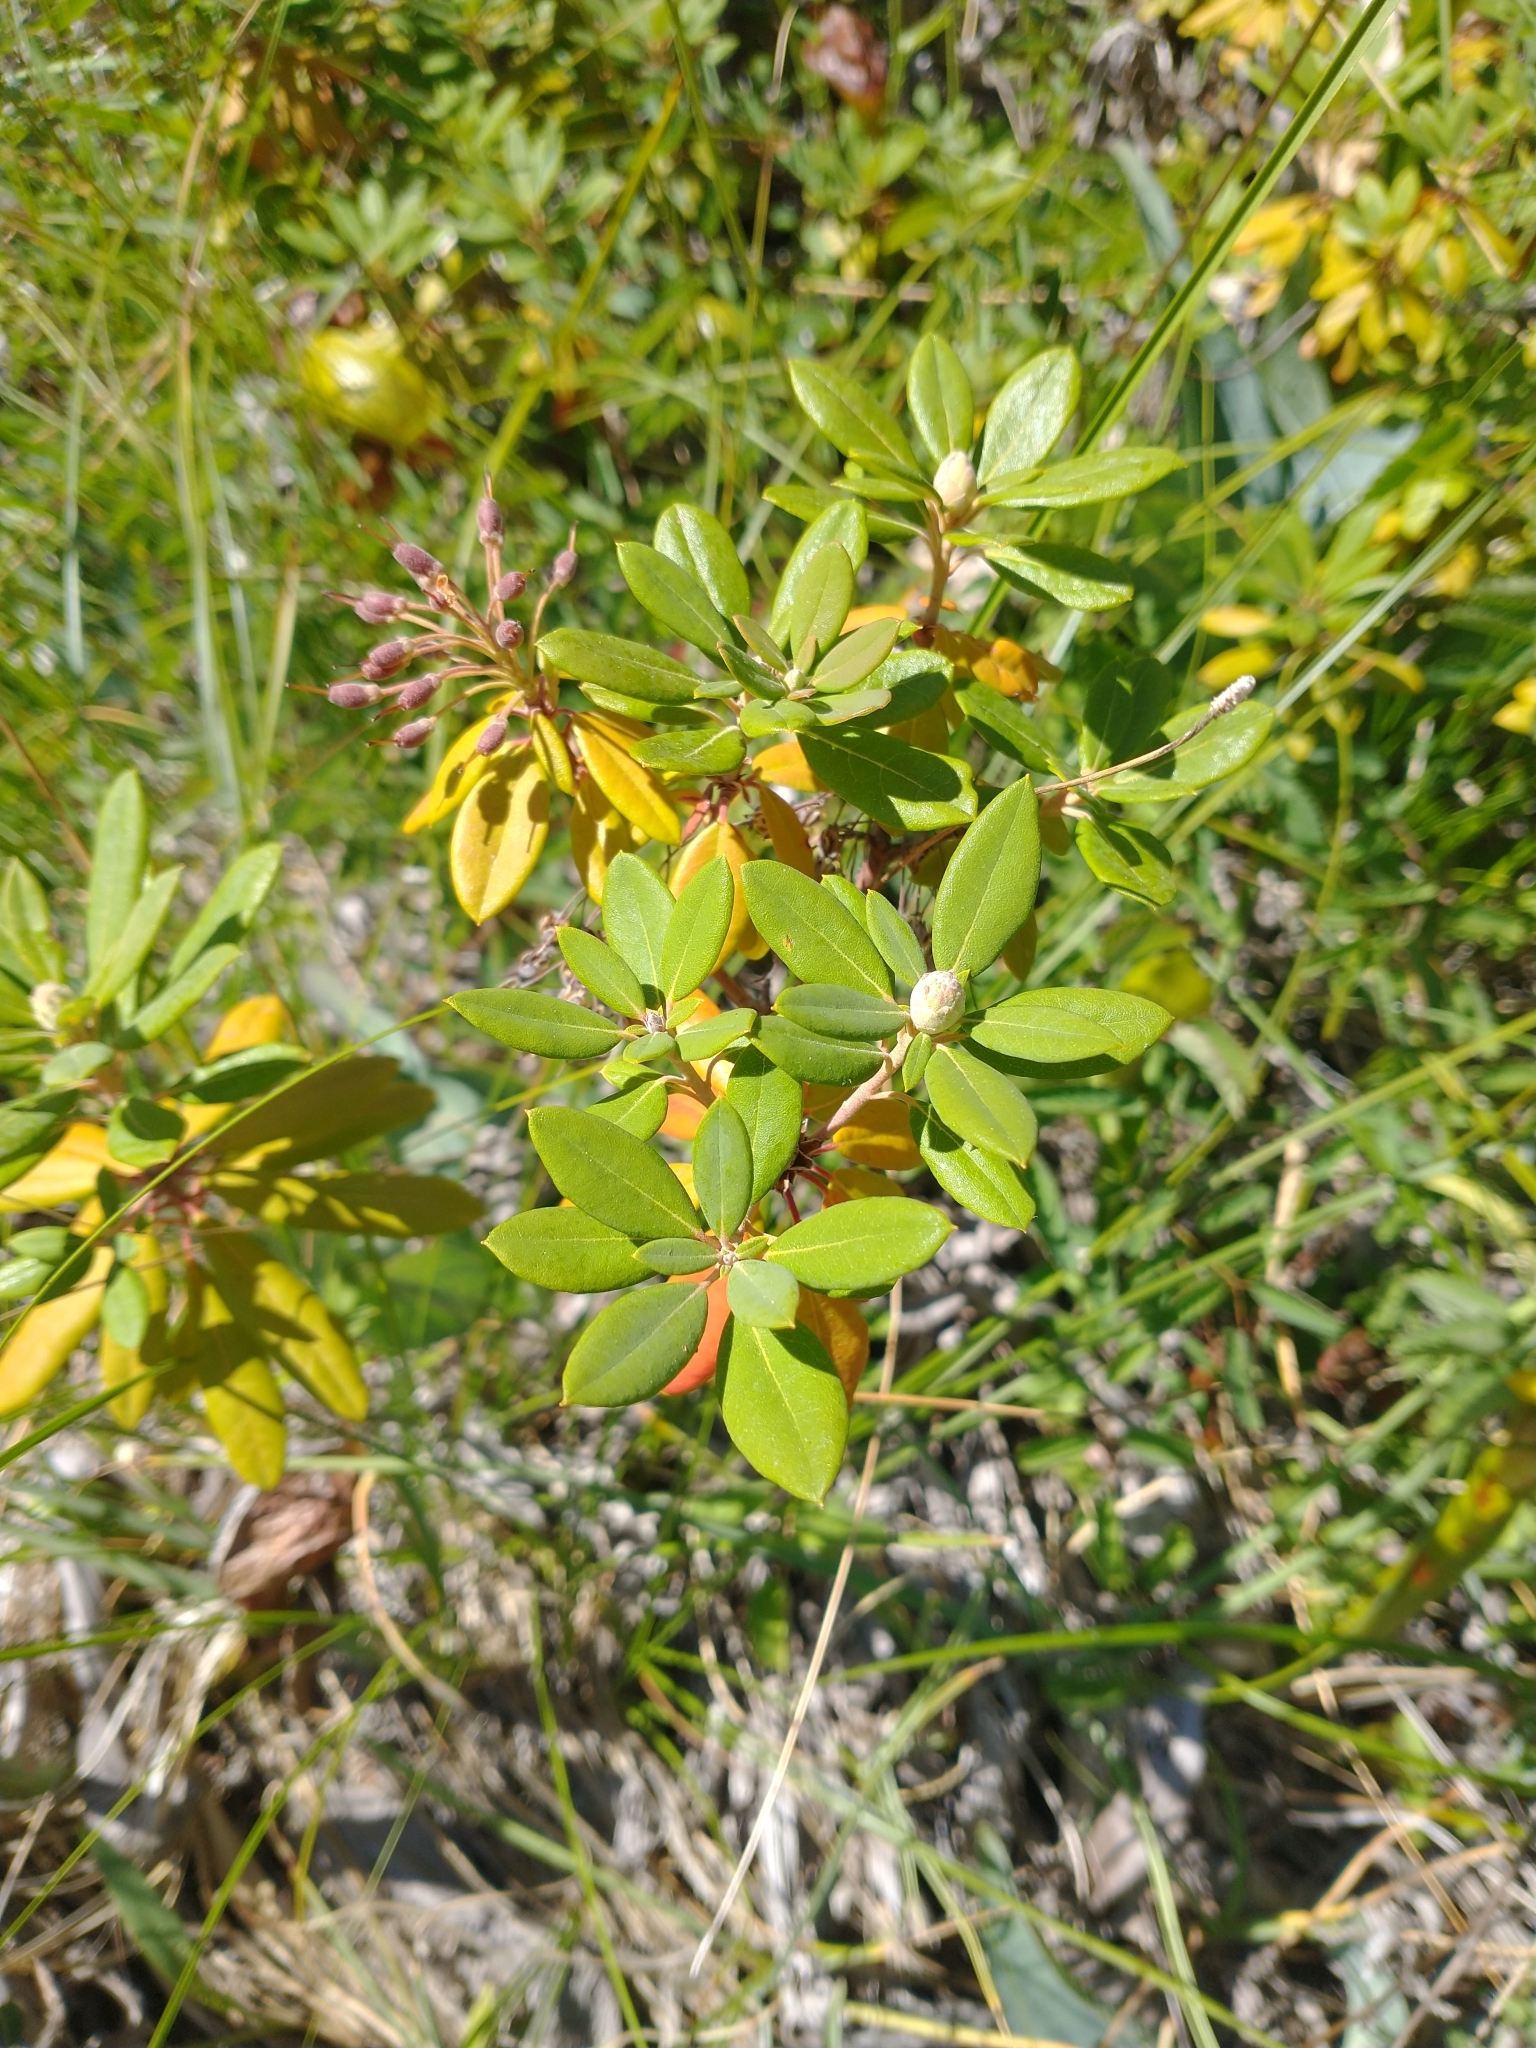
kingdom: Plantae
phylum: Tracheophyta
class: Magnoliopsida
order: Ericales
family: Ericaceae
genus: Rhododendron
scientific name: Rhododendron columbianum
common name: Western labrador tea
